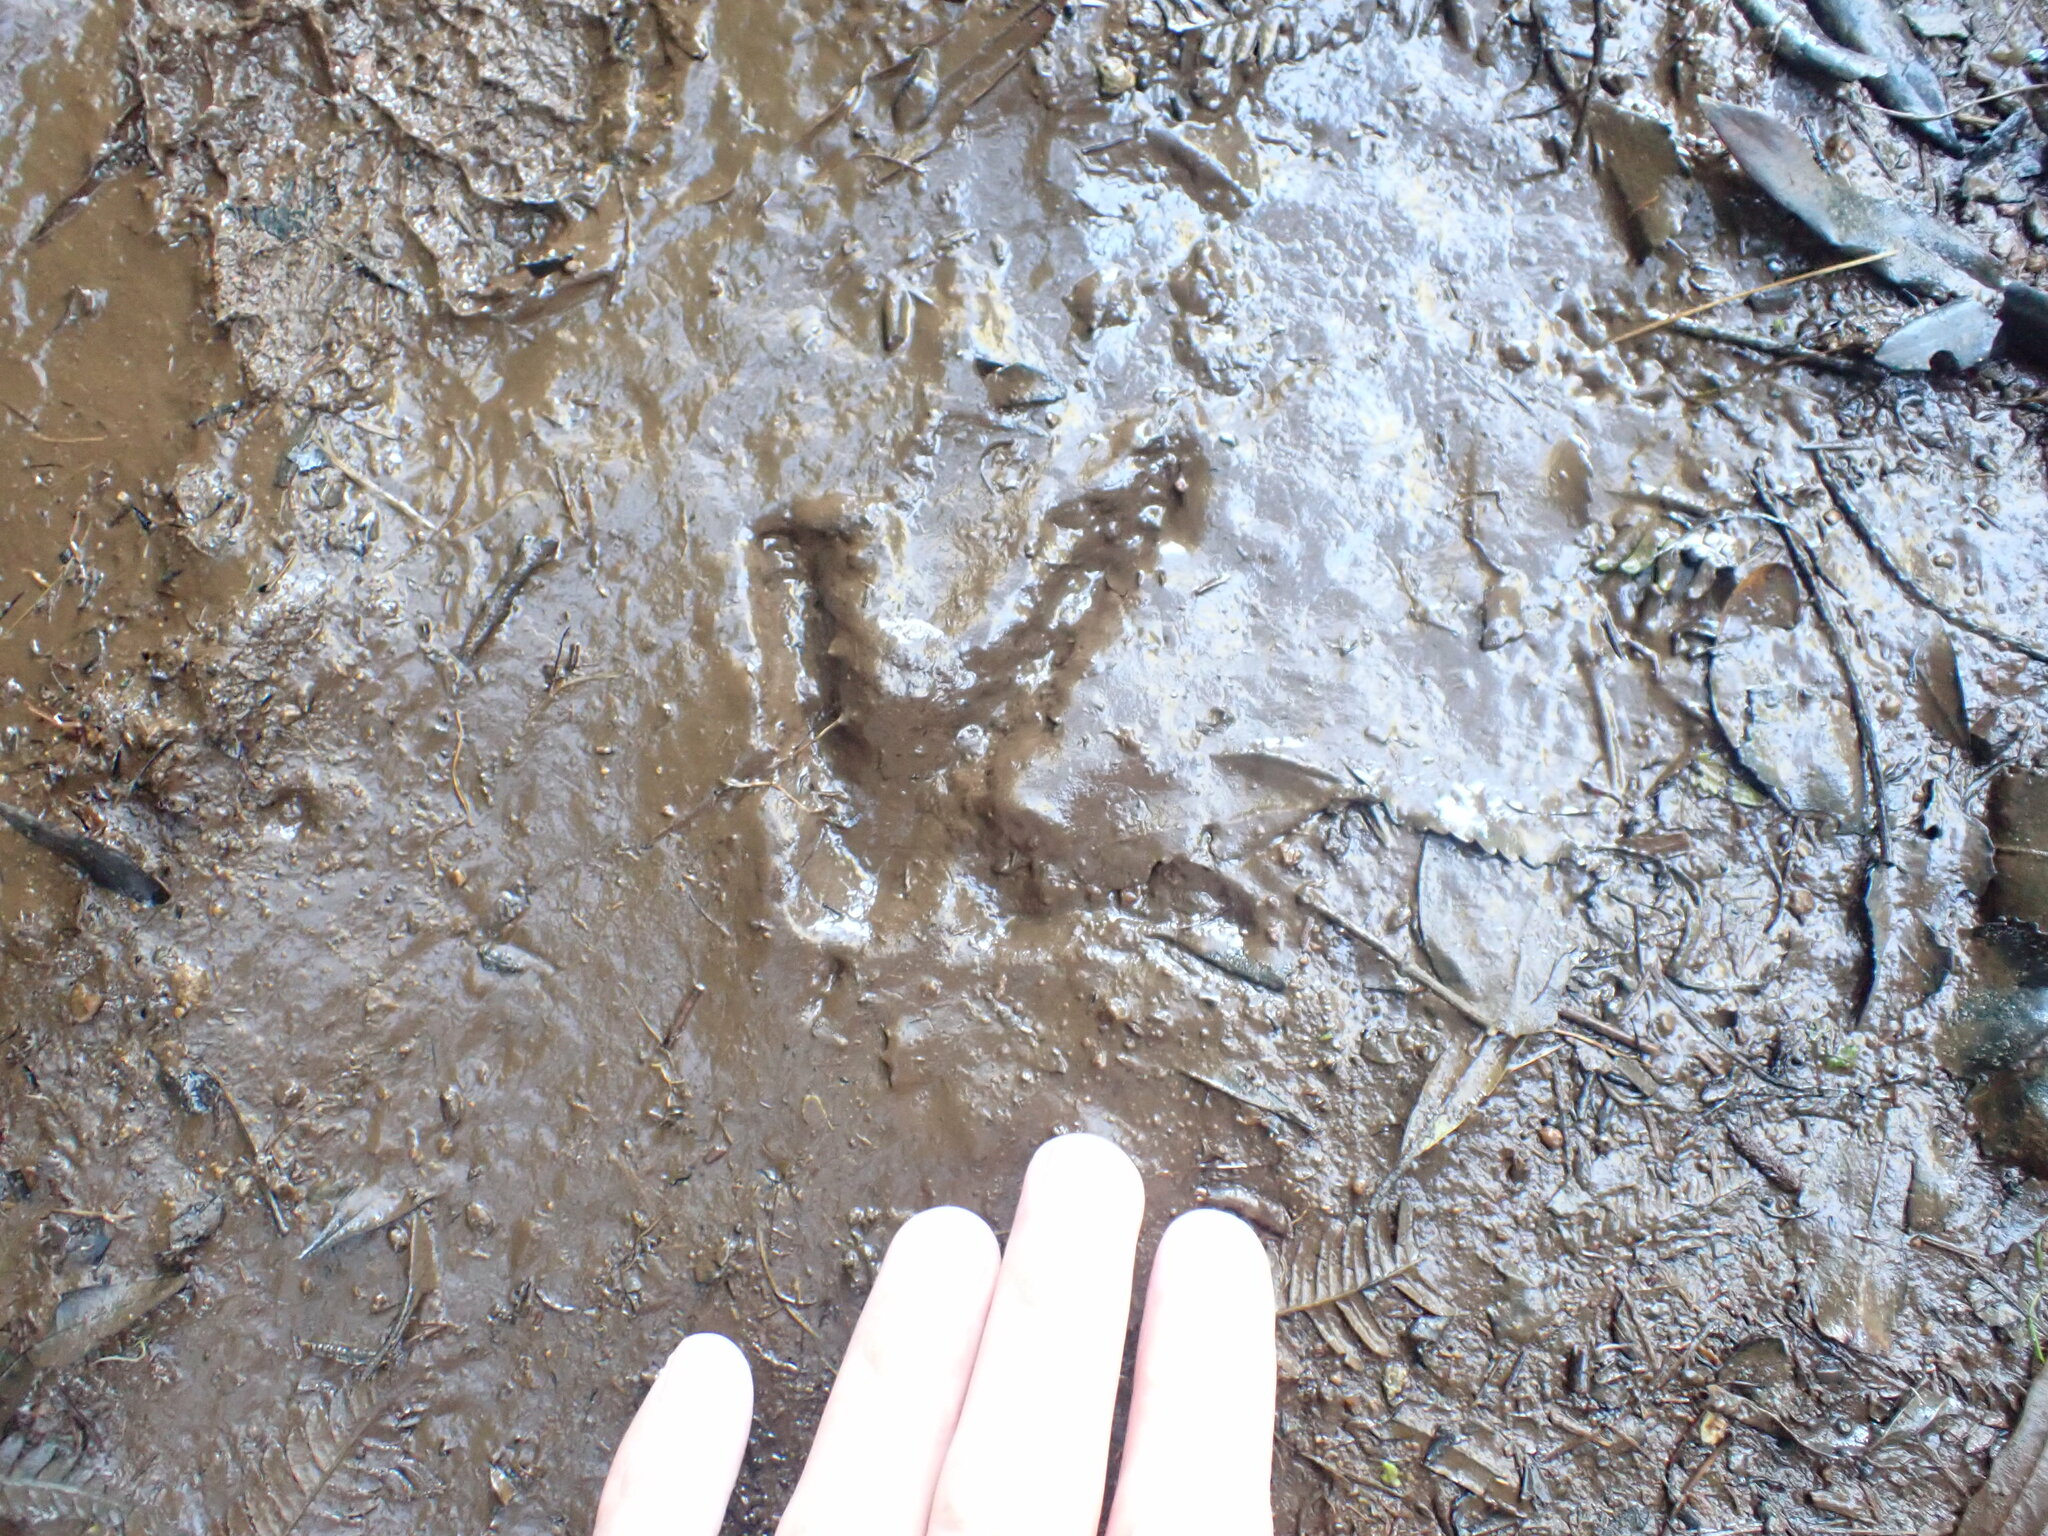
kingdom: Animalia
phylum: Chordata
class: Aves
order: Apterygiformes
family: Apterygidae
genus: Apteryx
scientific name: Apteryx mantelli
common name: North island brown kiwi
